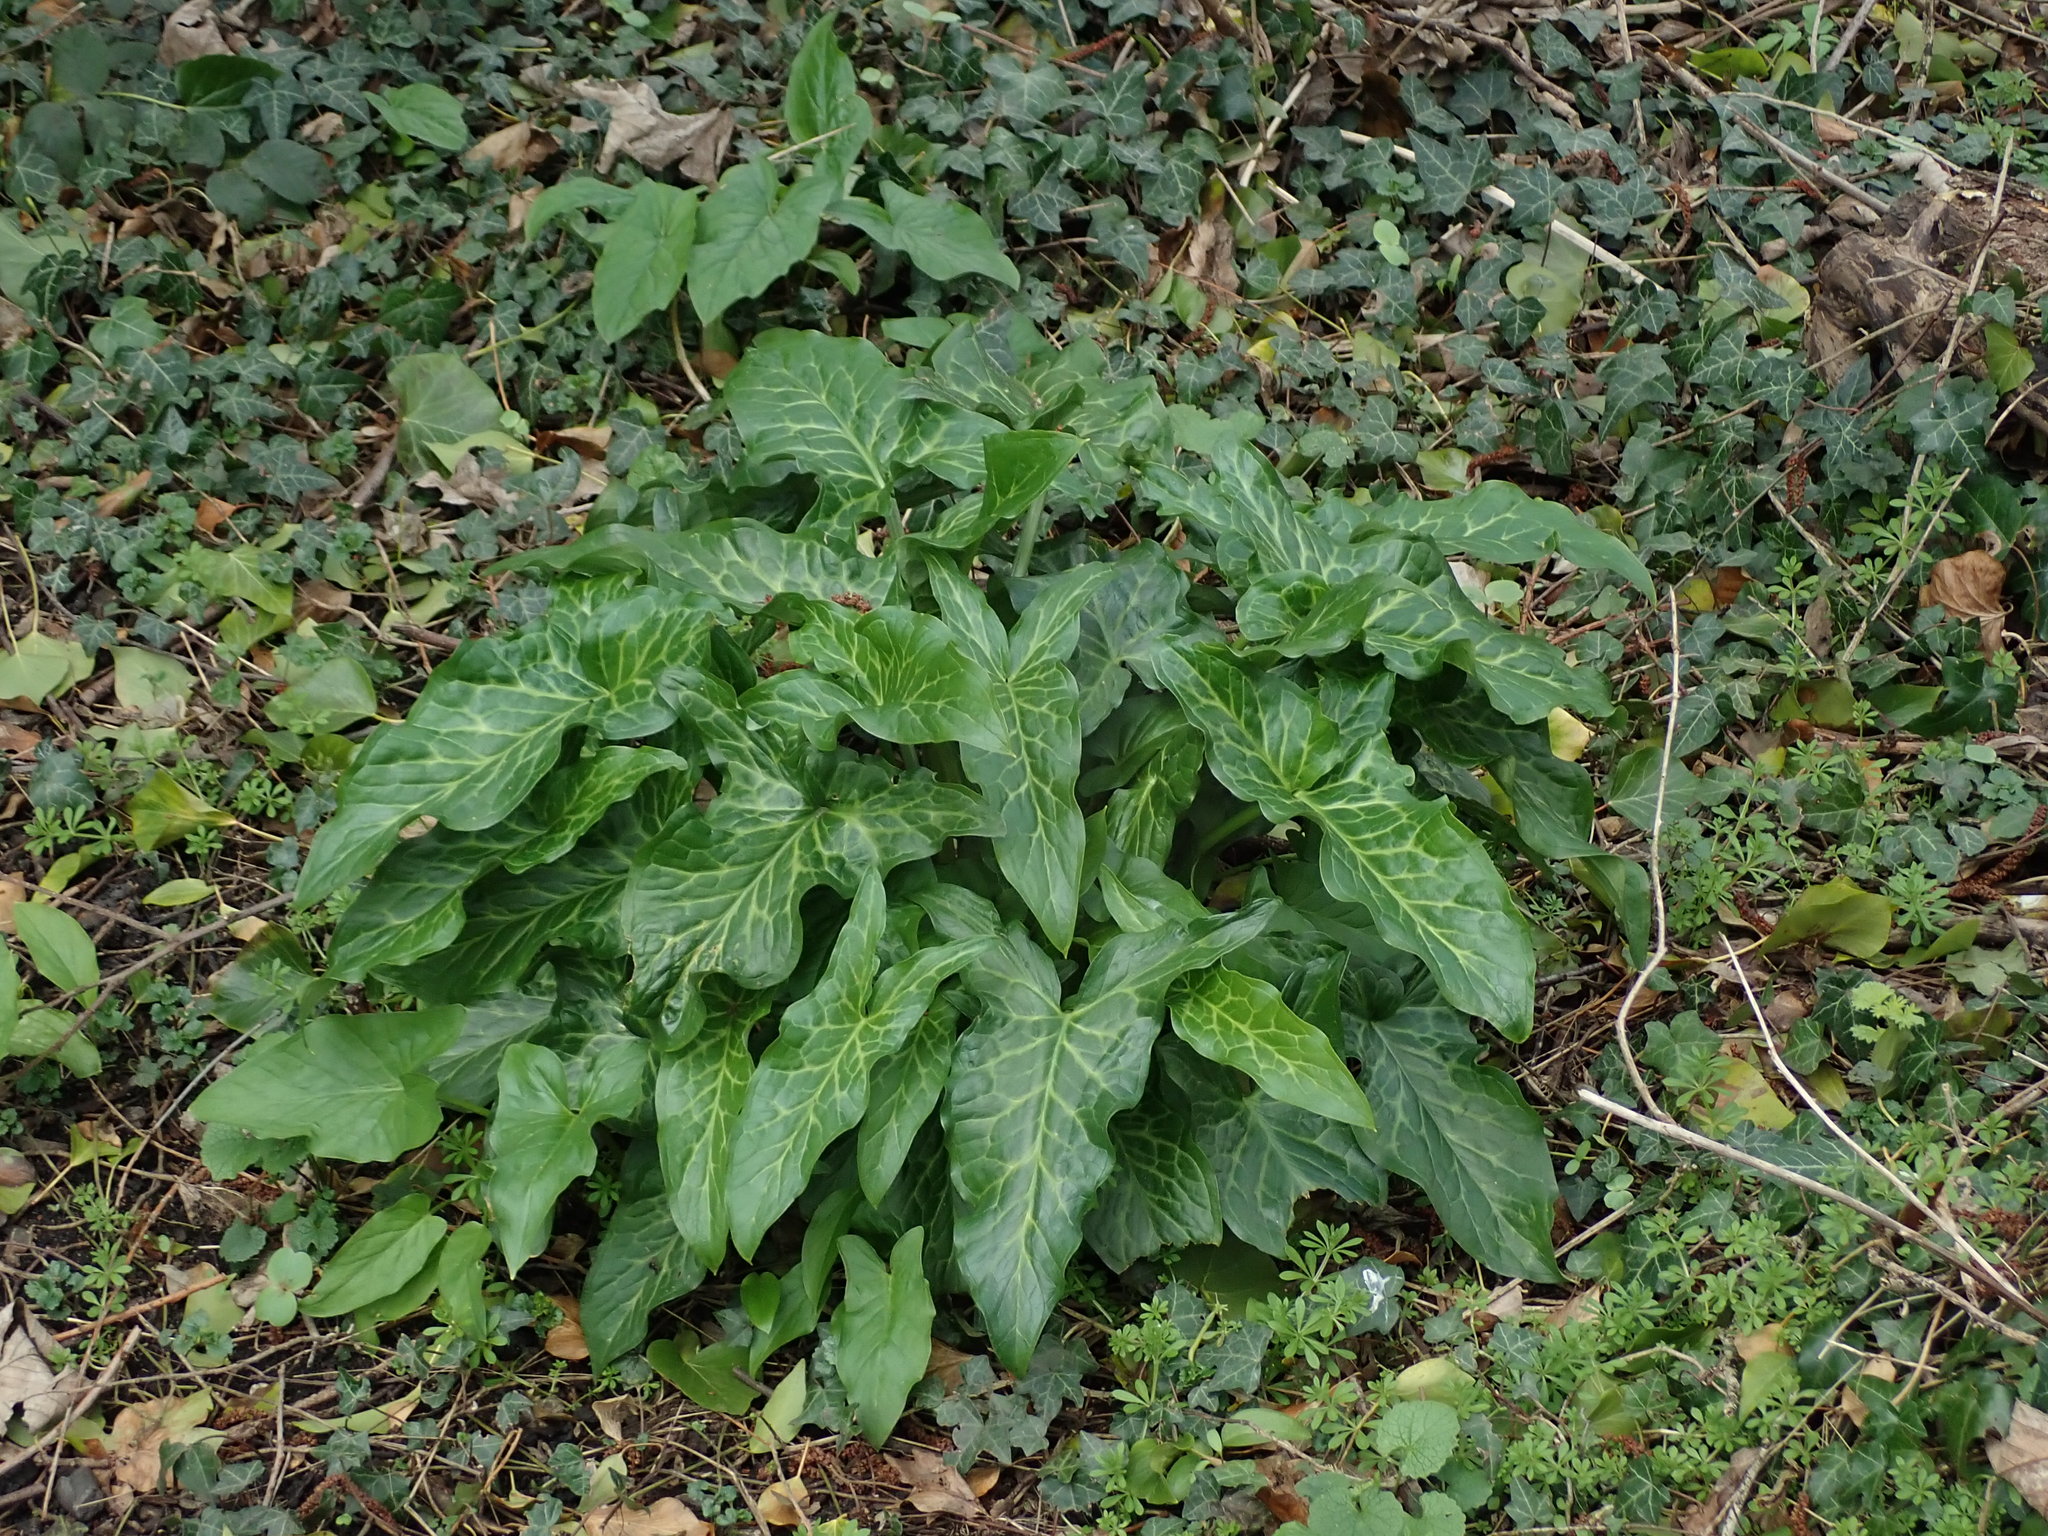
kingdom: Plantae
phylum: Tracheophyta
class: Liliopsida
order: Alismatales
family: Araceae
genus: Arum
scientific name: Arum italicum
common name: Italian lords-and-ladies
